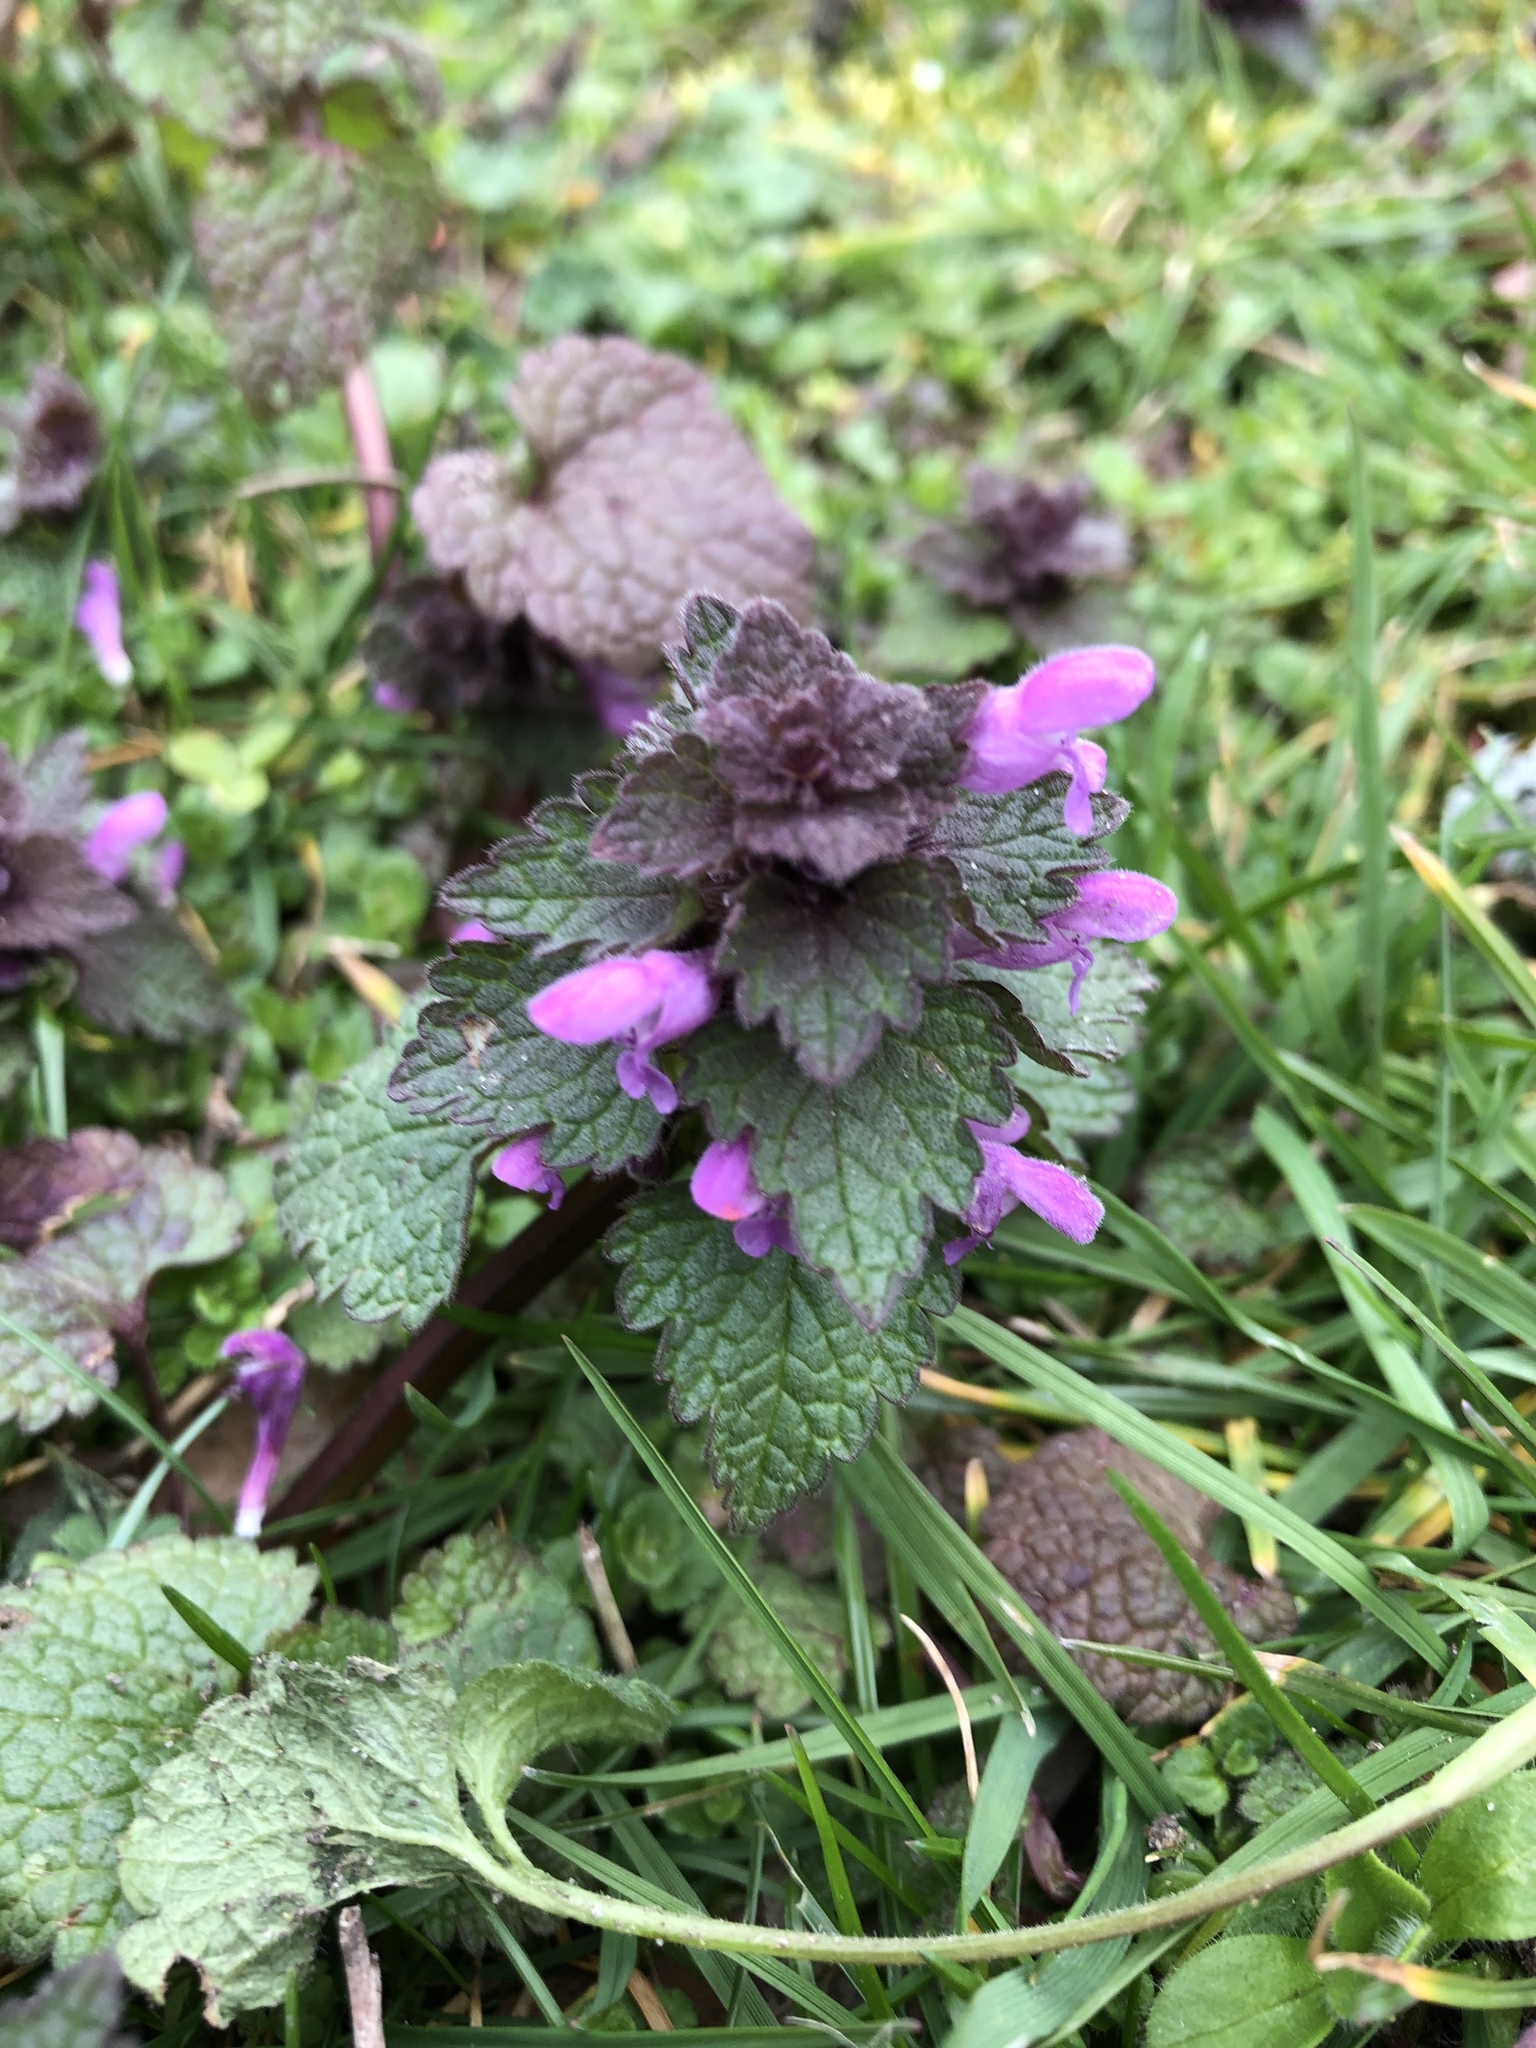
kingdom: Plantae
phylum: Tracheophyta
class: Magnoliopsida
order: Lamiales
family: Lamiaceae
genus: Lamium
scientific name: Lamium purpureum
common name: Red dead-nettle
